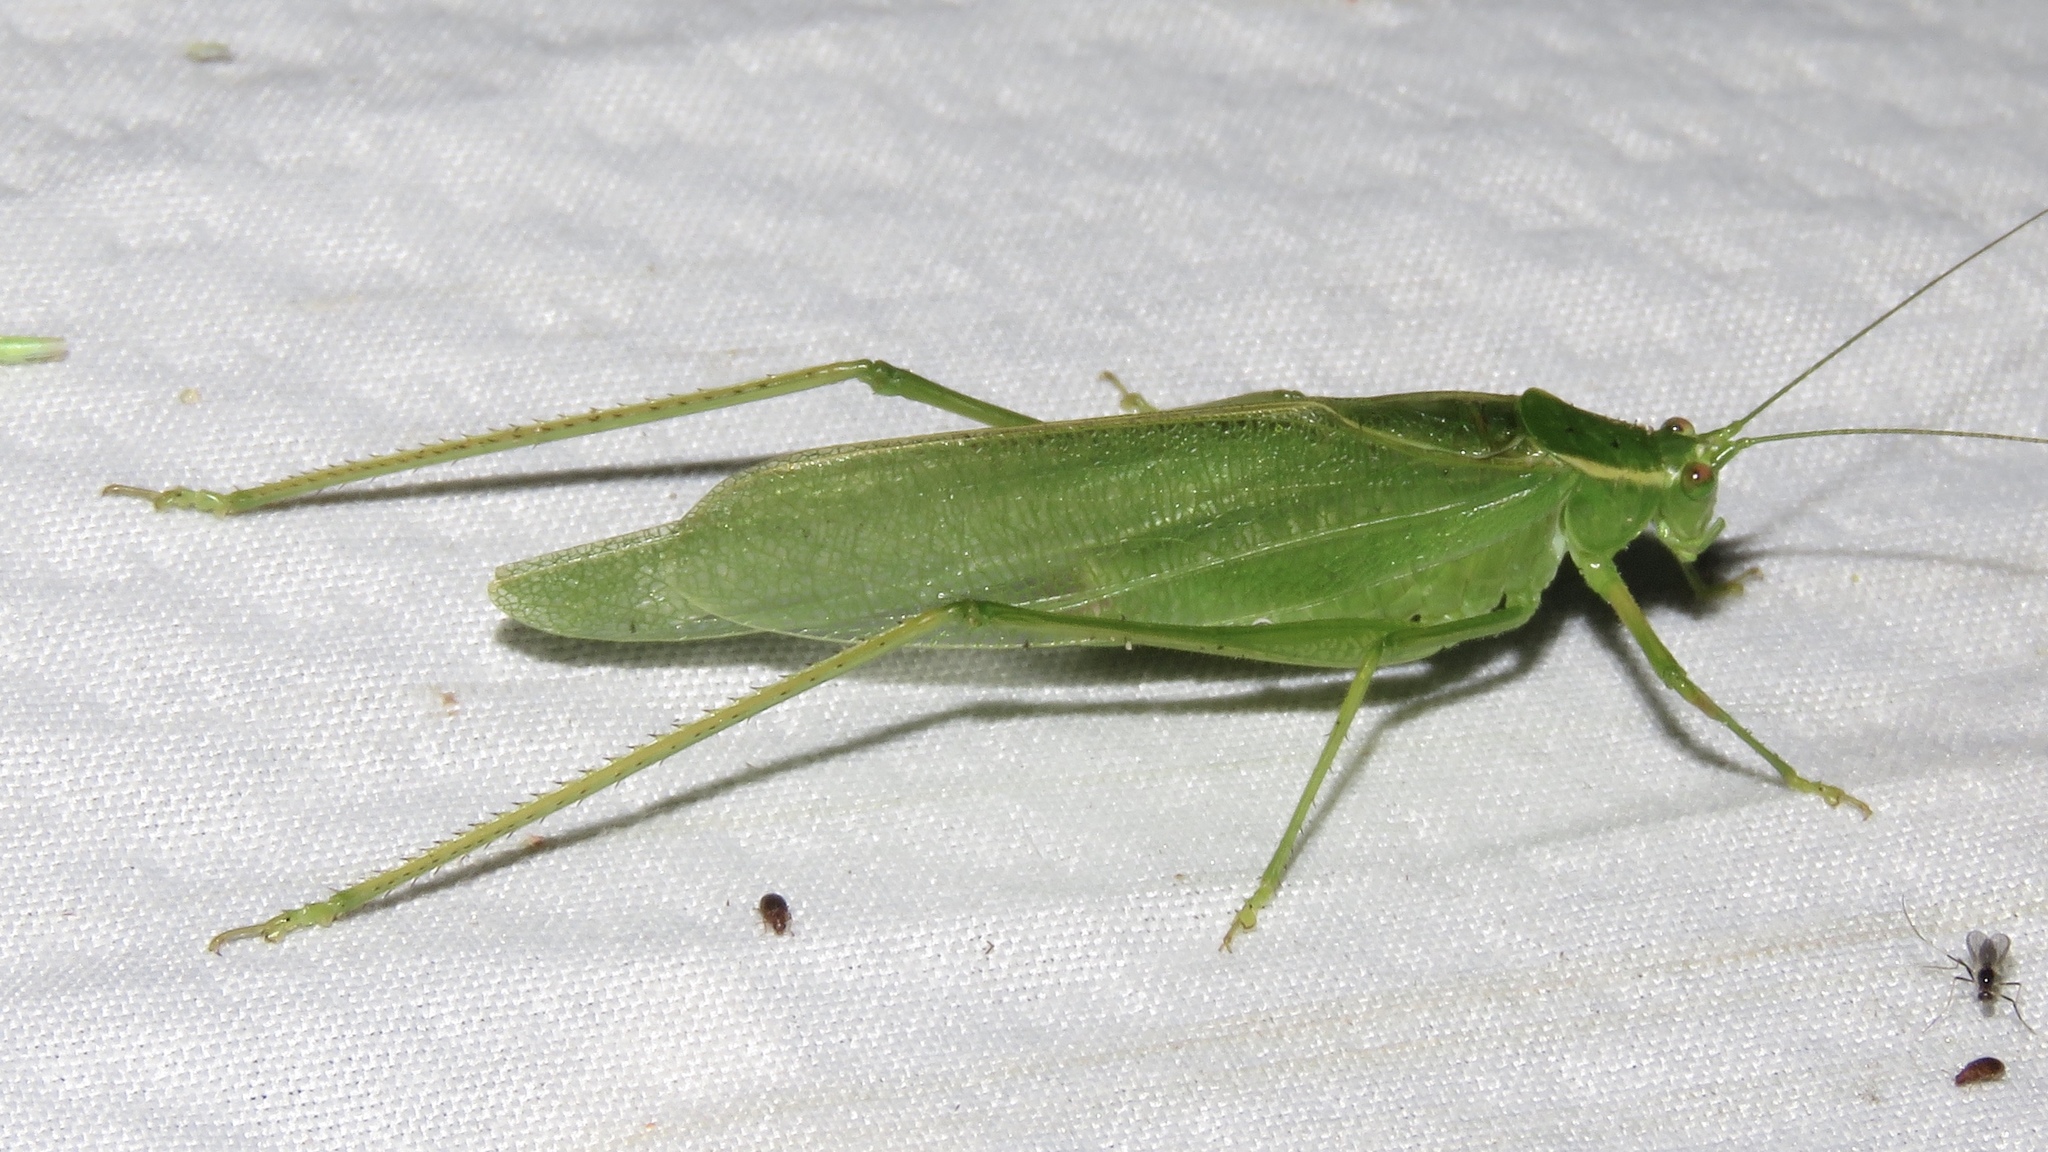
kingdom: Animalia
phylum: Arthropoda
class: Insecta
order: Orthoptera
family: Tettigoniidae
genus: Scudderia
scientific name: Scudderia septentrionalis
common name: Northern bush-katydid
